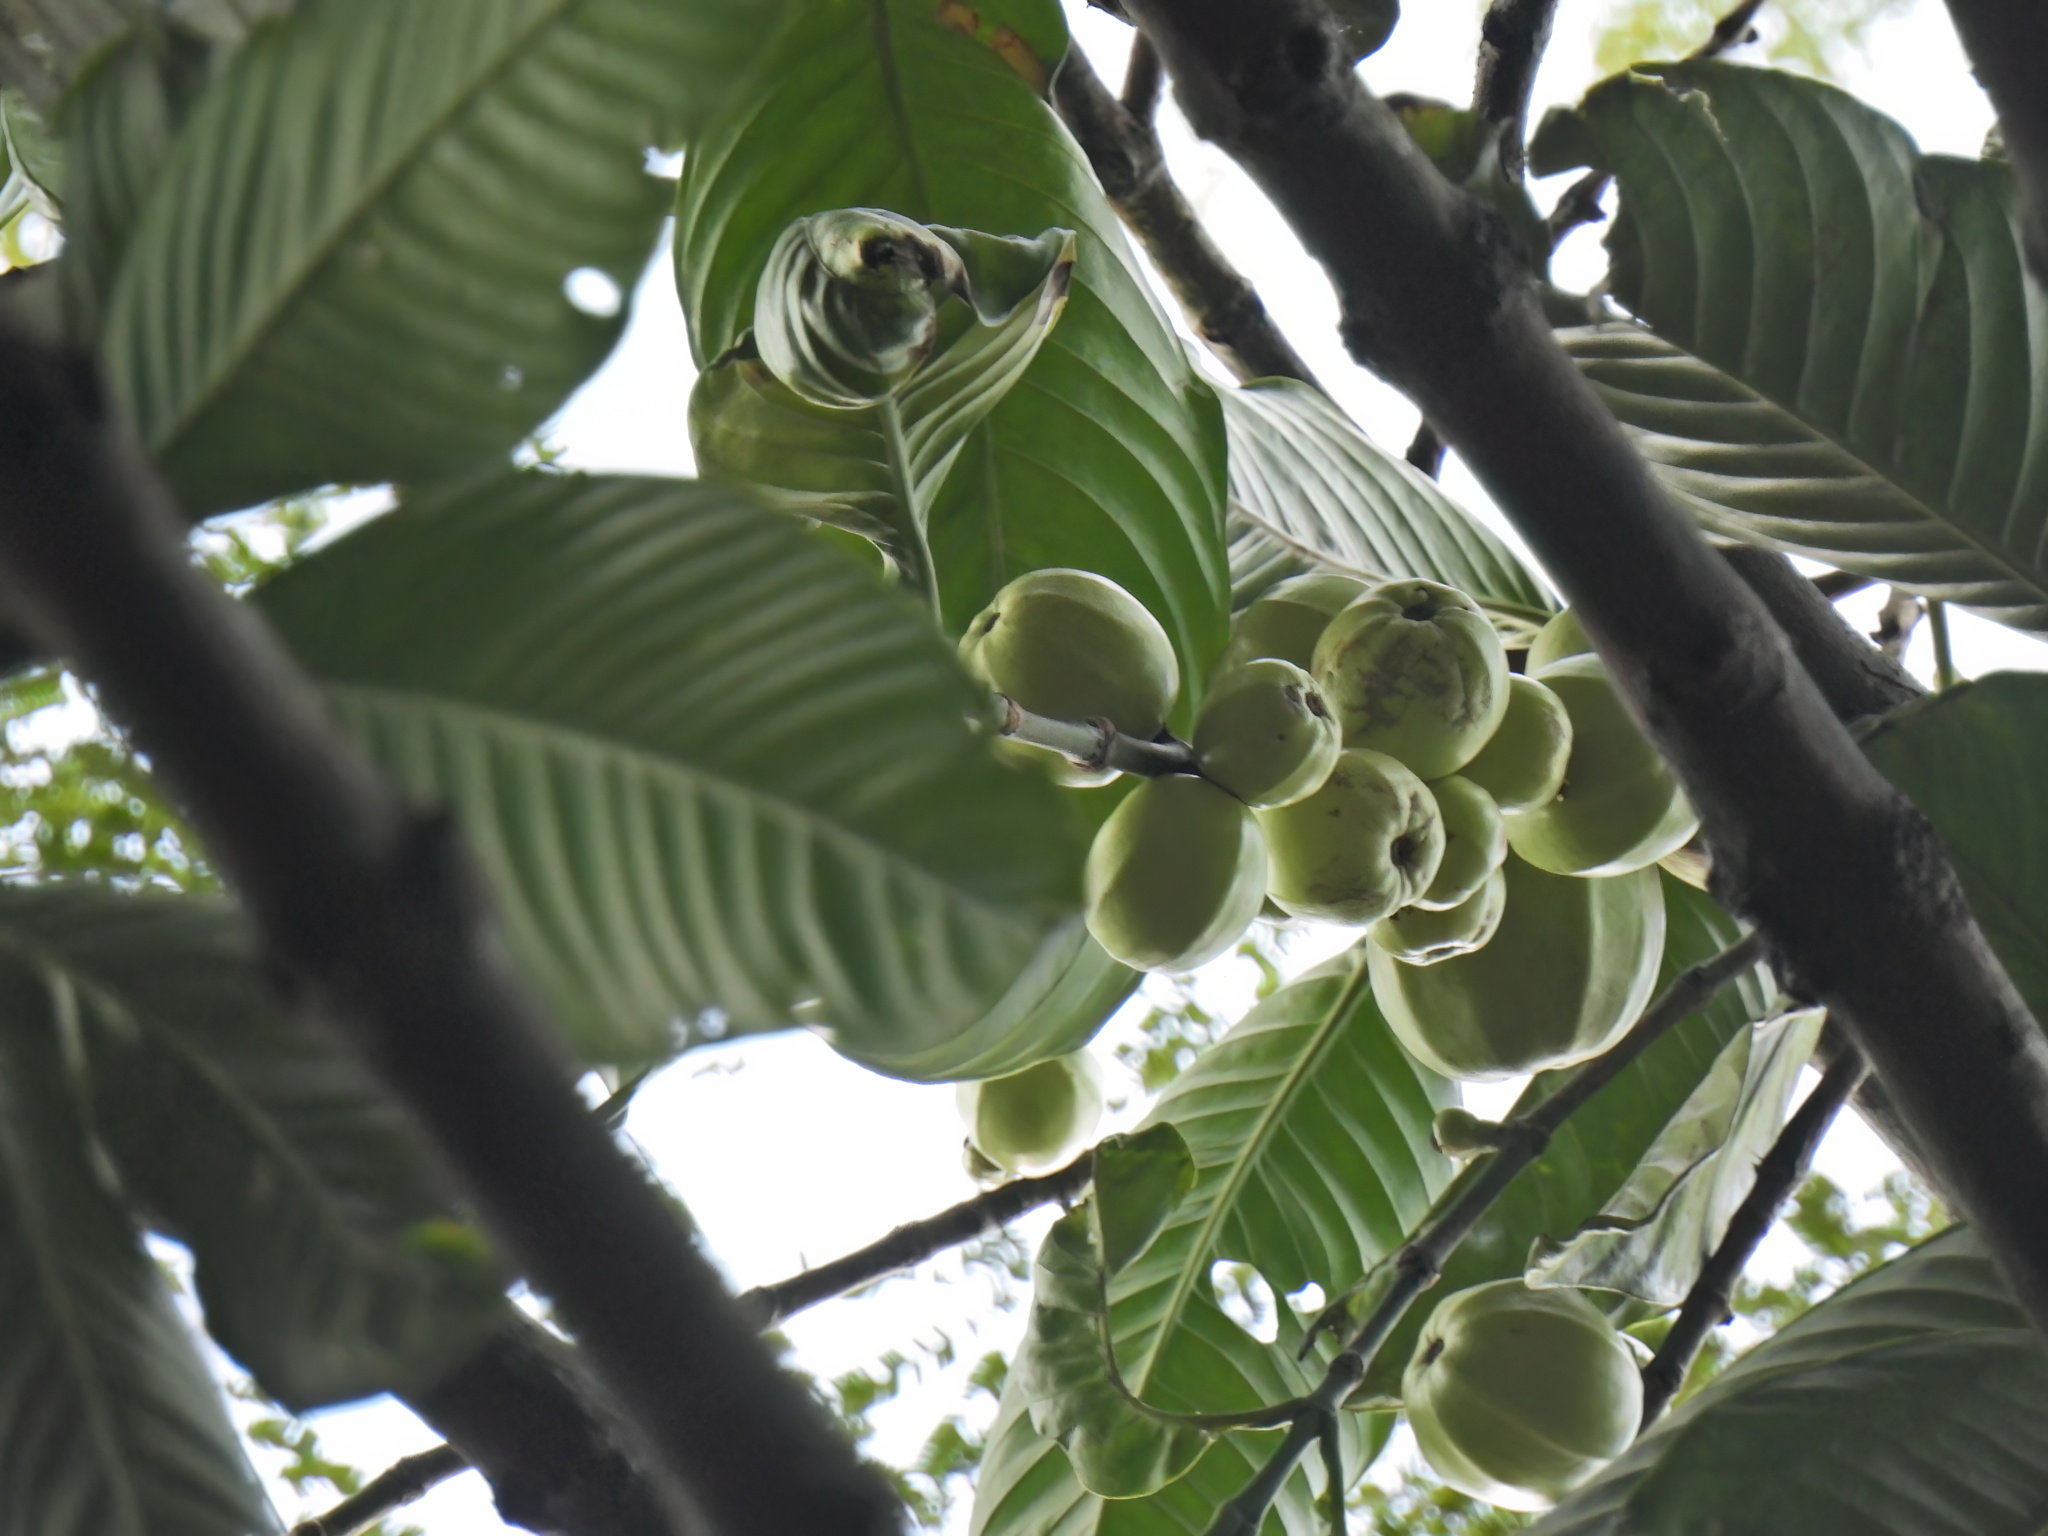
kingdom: Plantae
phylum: Tracheophyta
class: Magnoliopsida
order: Malpighiales
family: Clusiaceae
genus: Garcinia
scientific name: Garcinia griffithii
